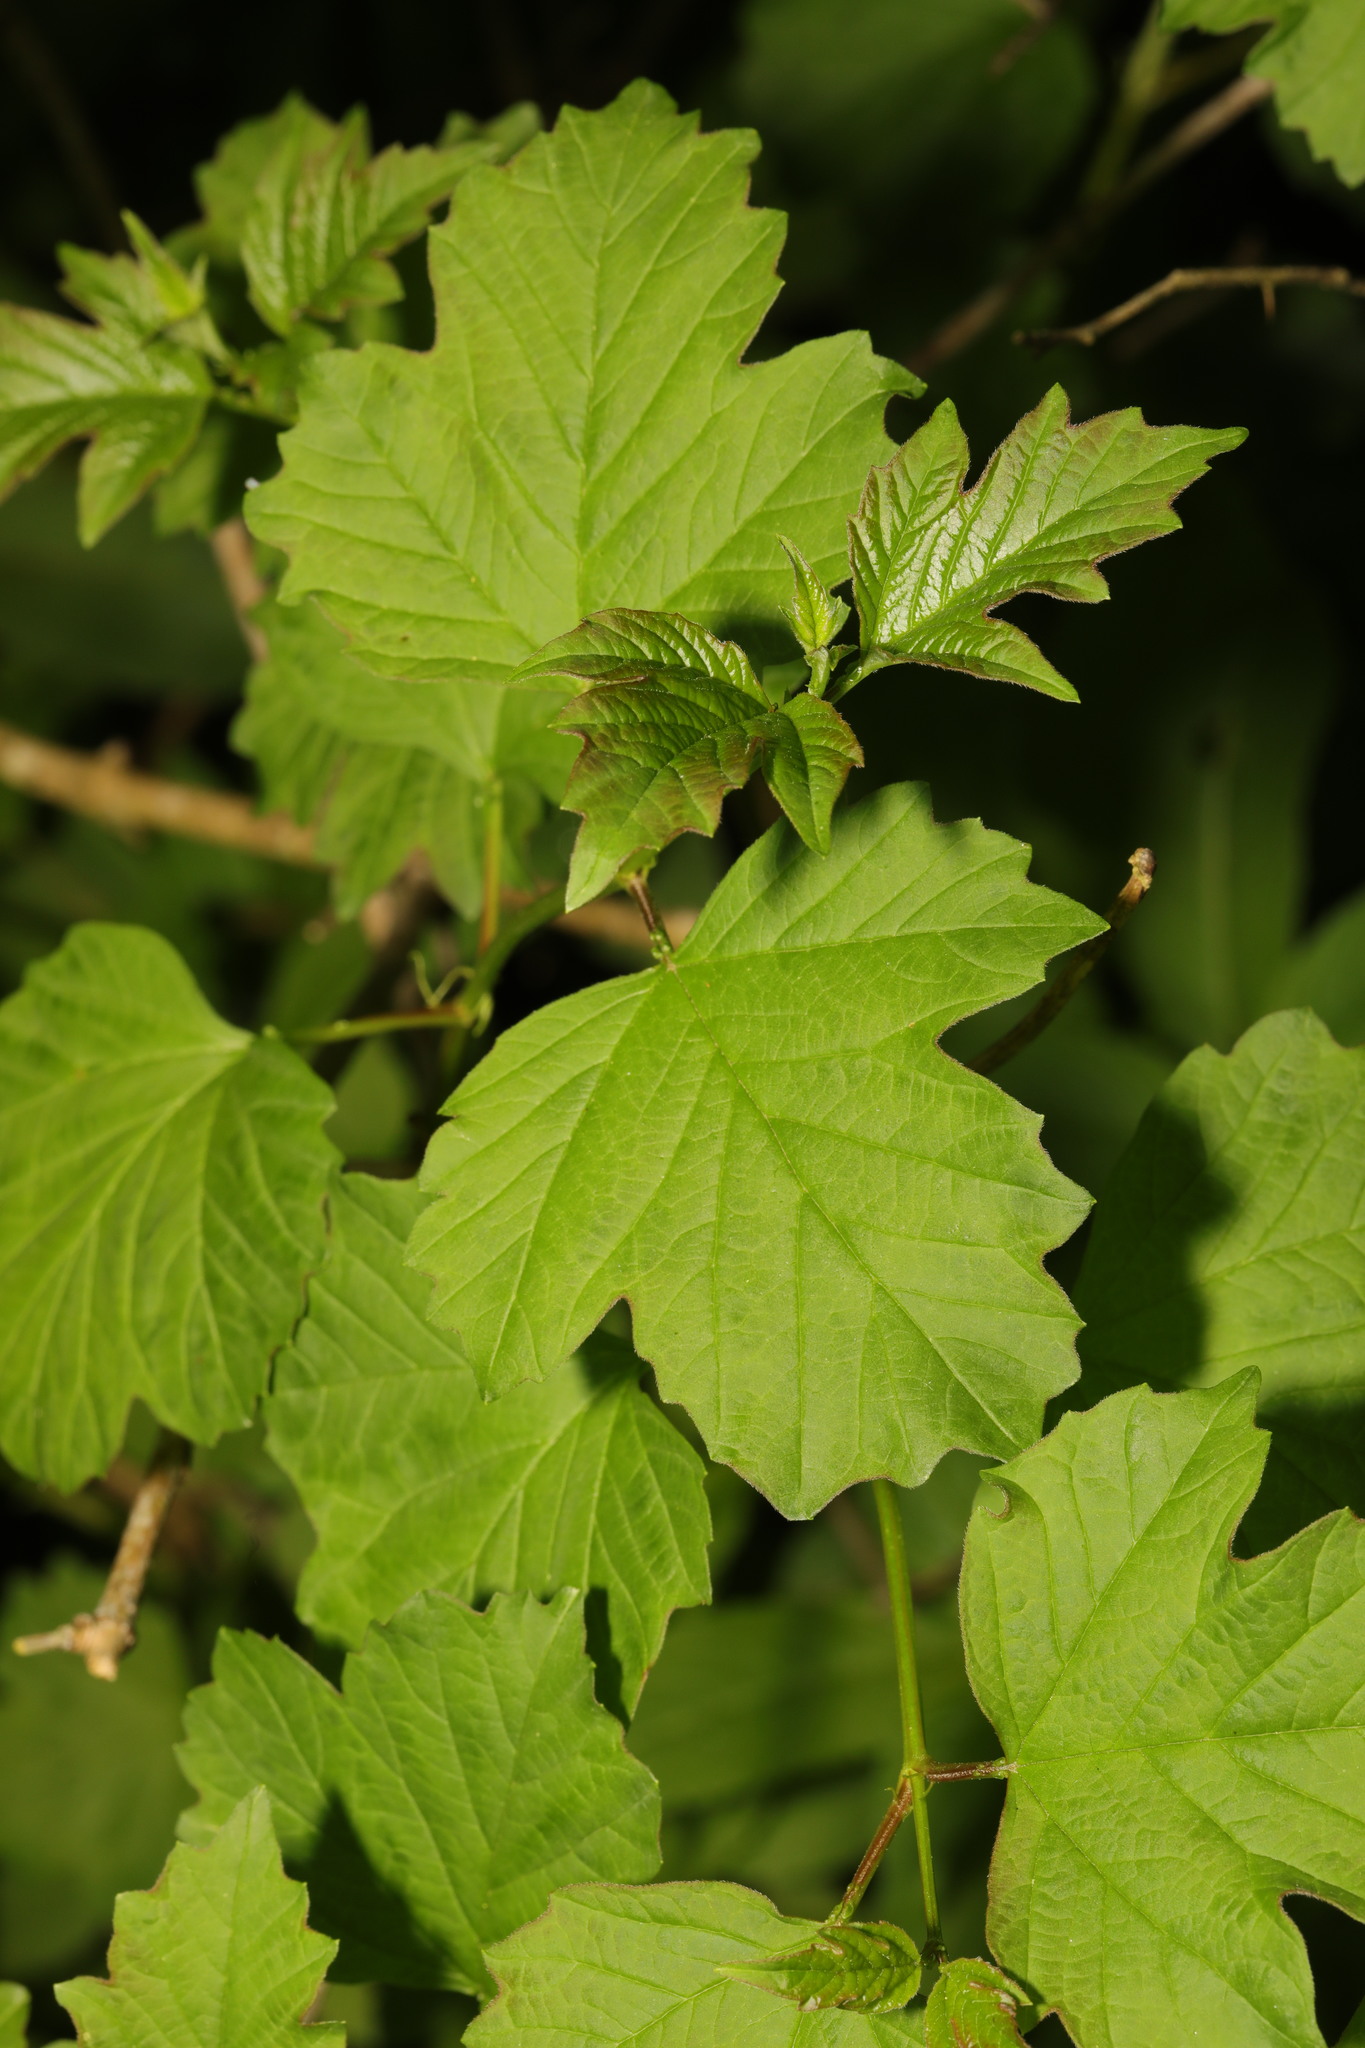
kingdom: Plantae
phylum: Tracheophyta
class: Magnoliopsida
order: Dipsacales
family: Viburnaceae
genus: Viburnum
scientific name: Viburnum opulus
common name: Guelder-rose
